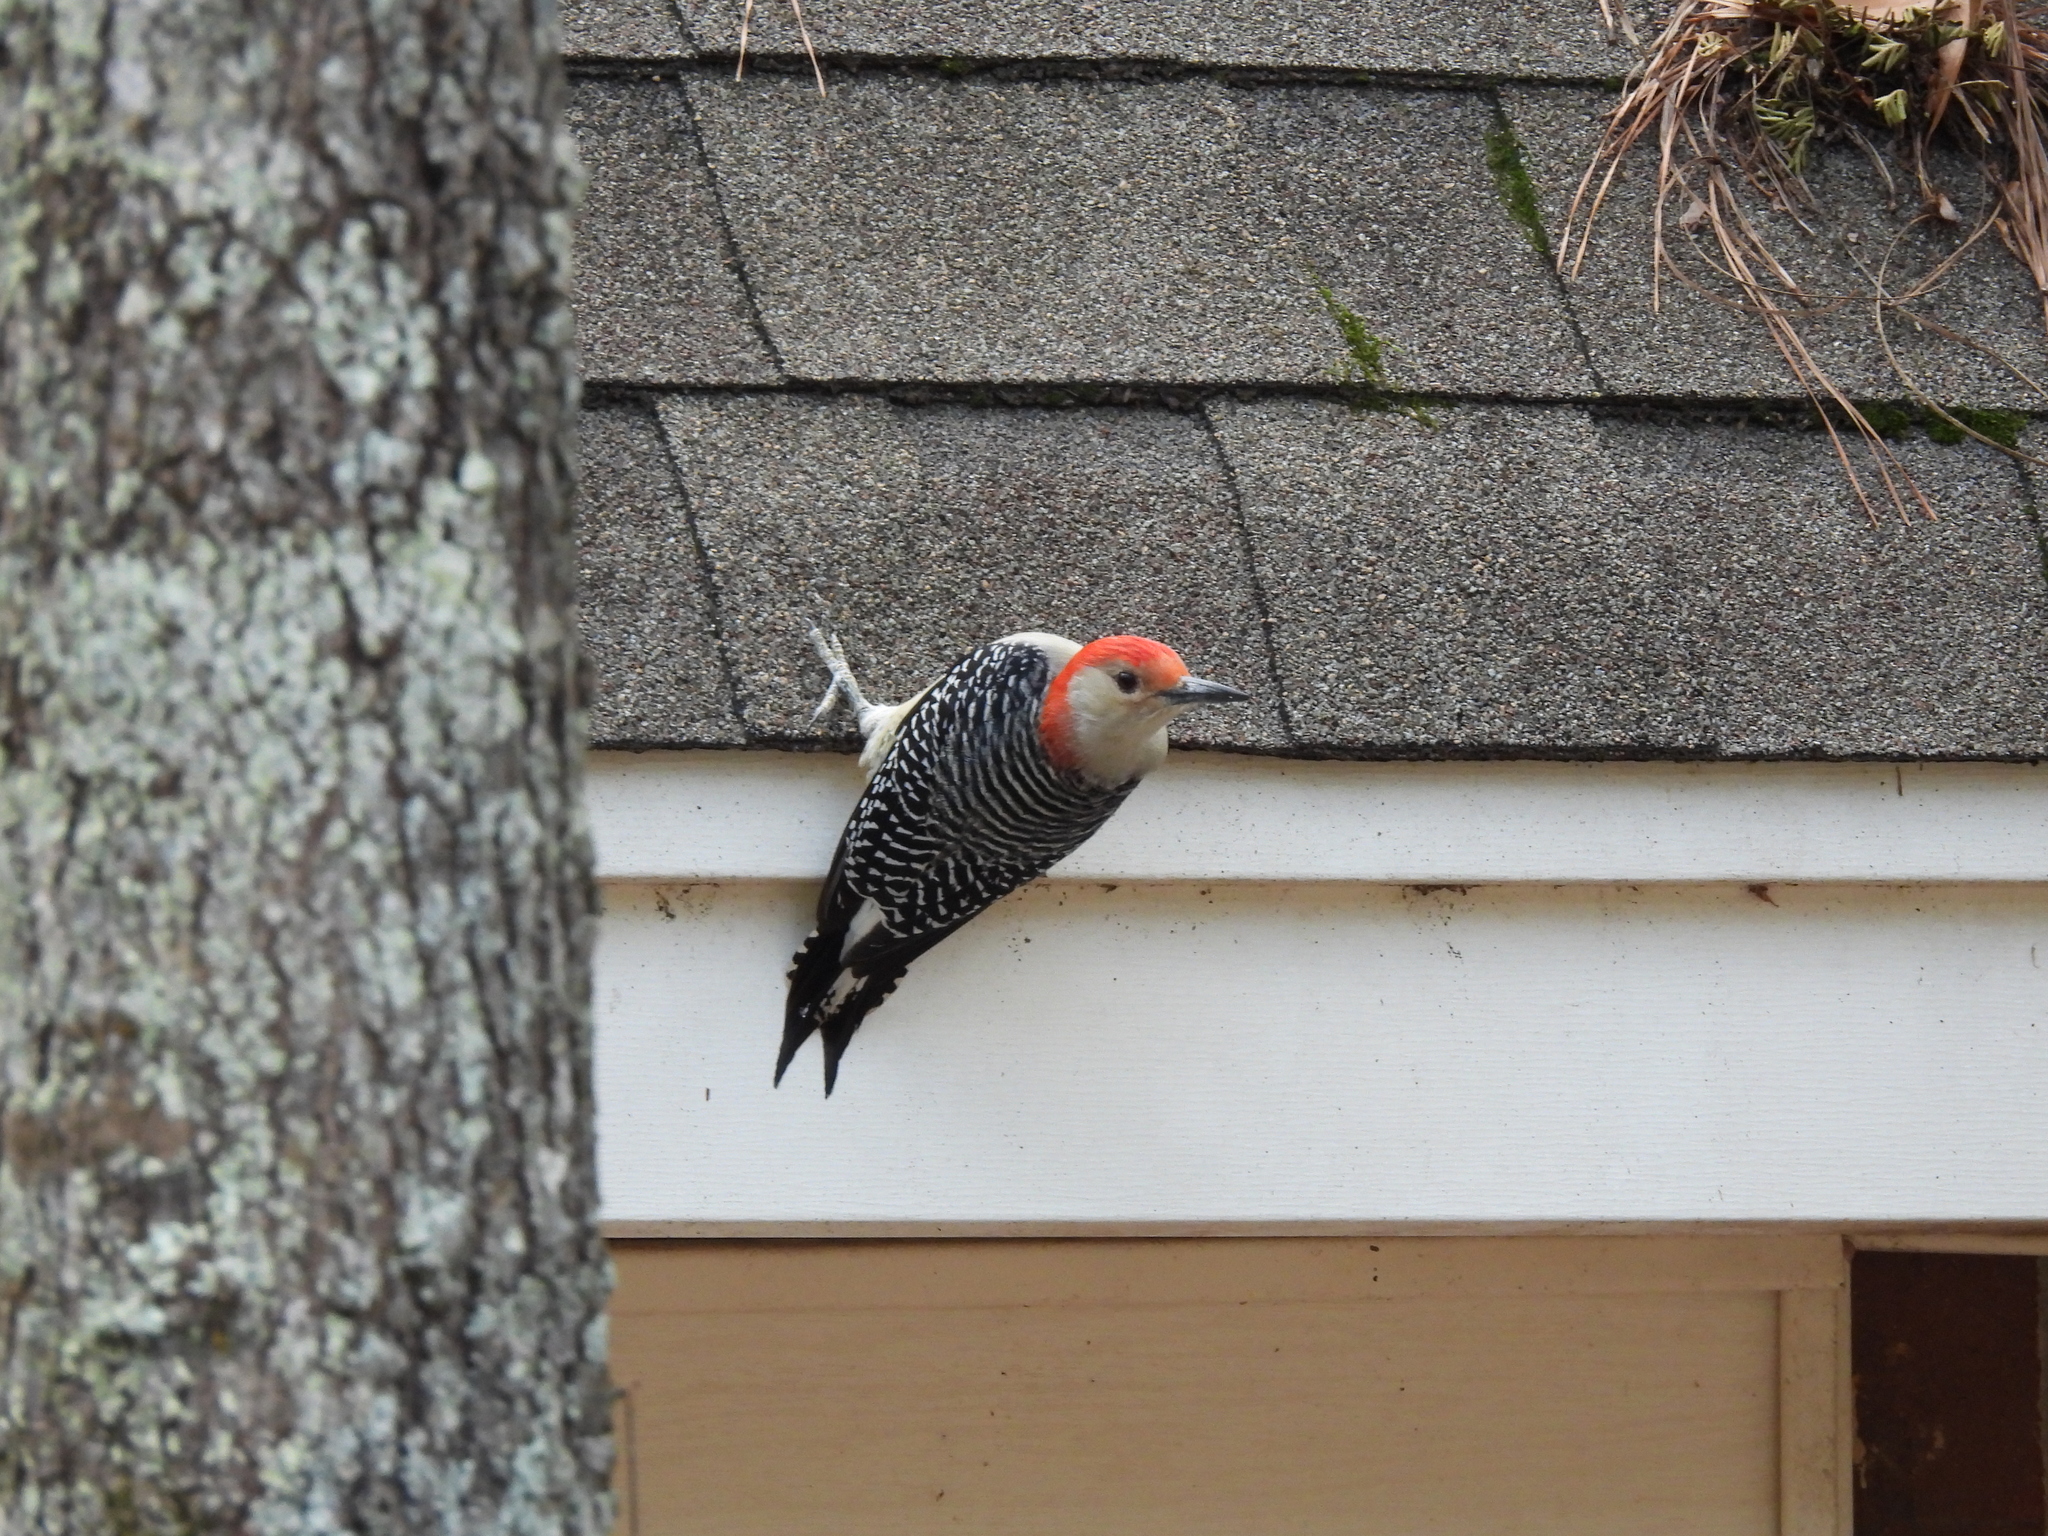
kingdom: Animalia
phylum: Chordata
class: Aves
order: Piciformes
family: Picidae
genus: Melanerpes
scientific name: Melanerpes carolinus
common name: Red-bellied woodpecker
